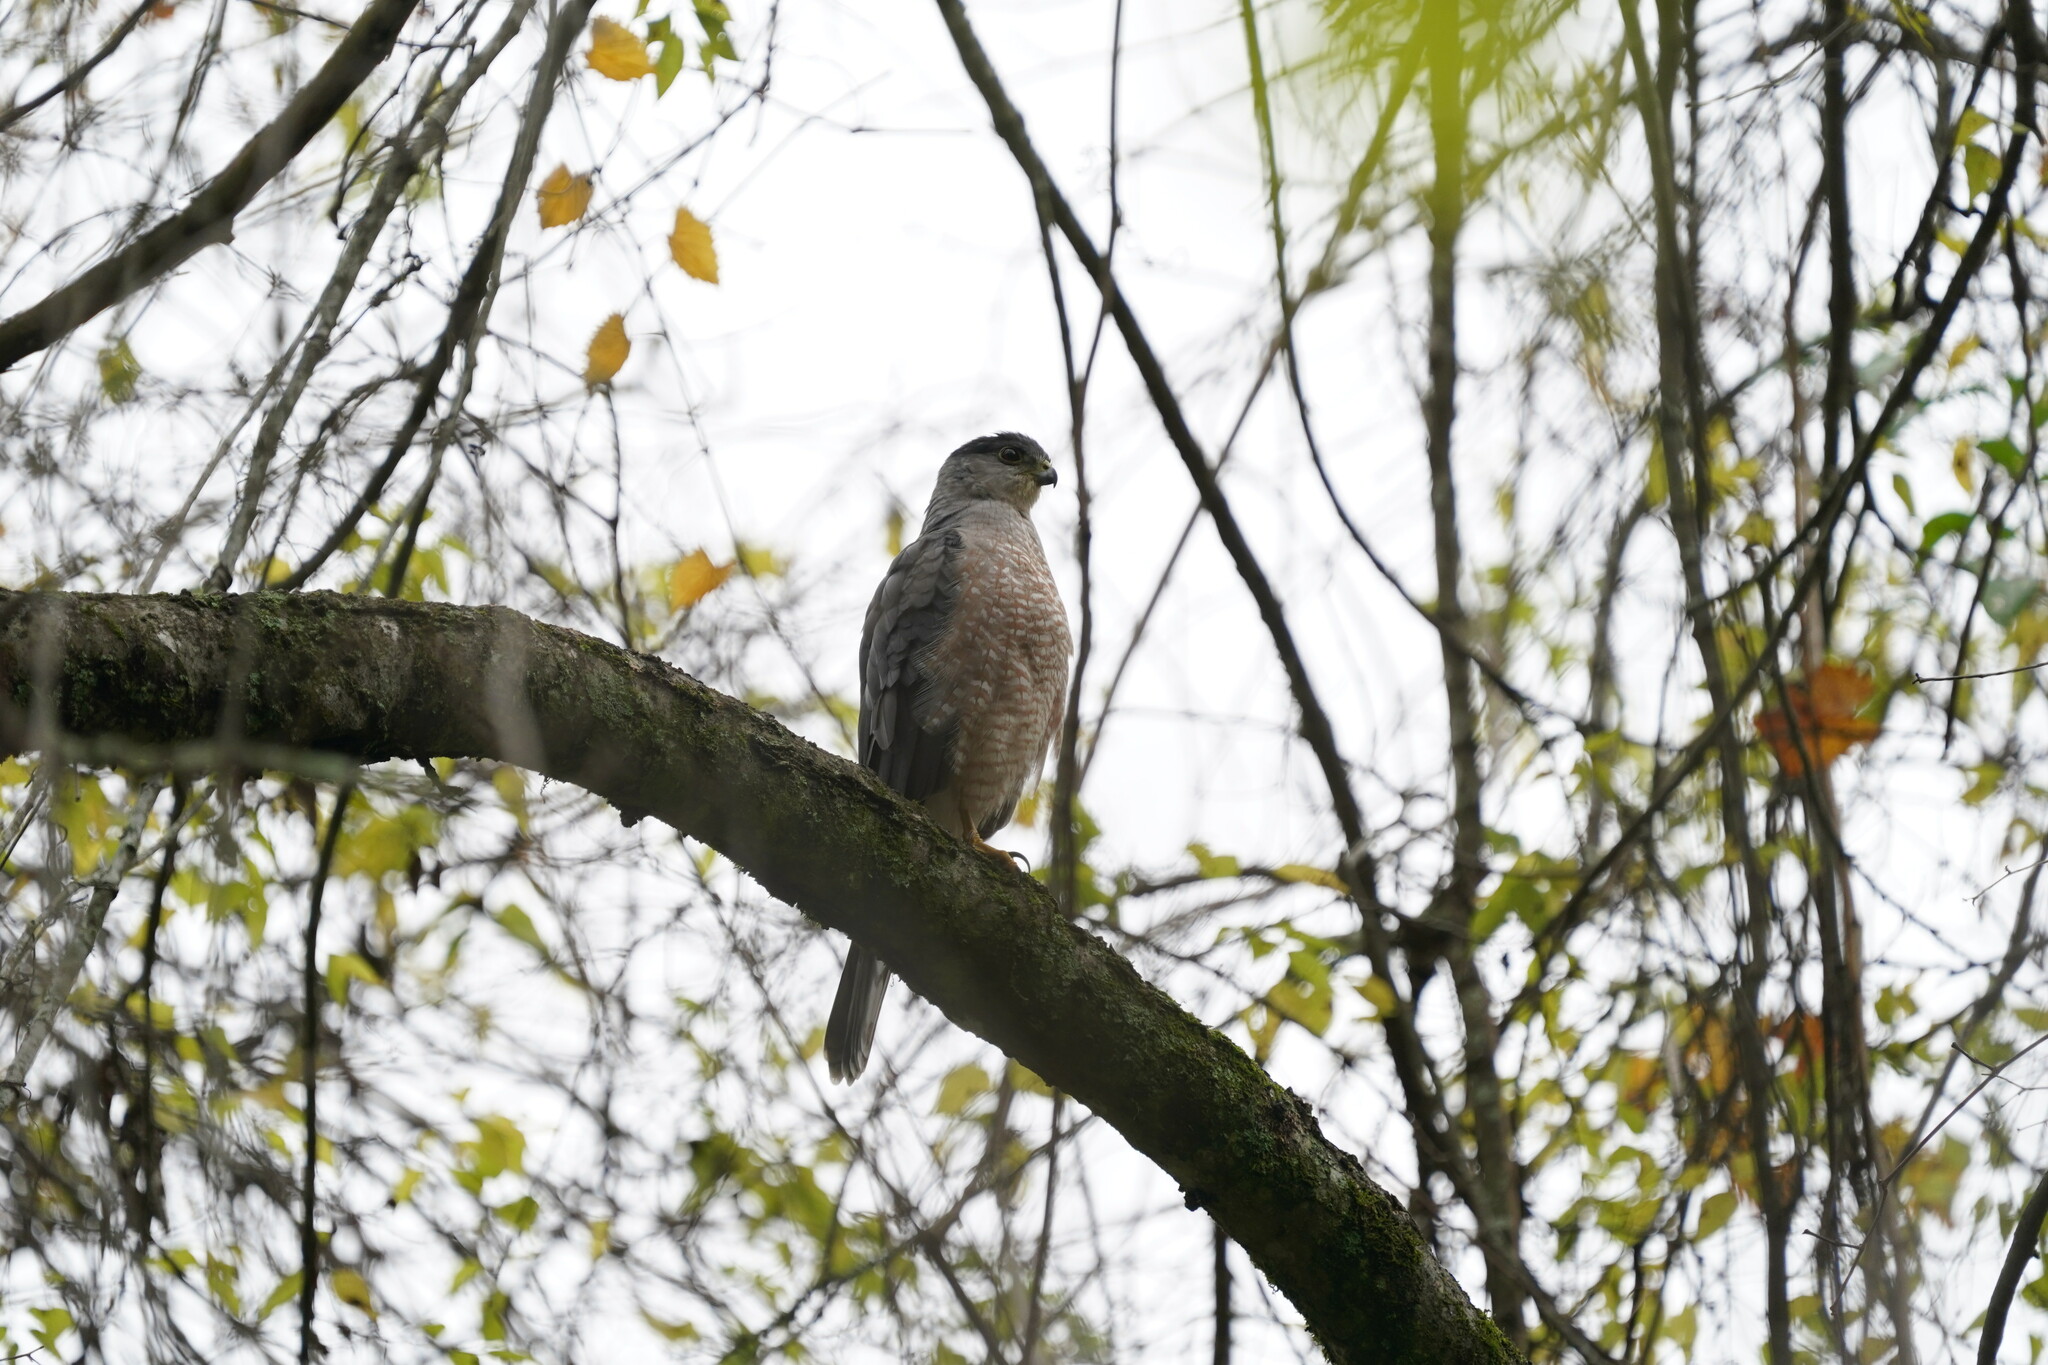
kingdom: Animalia
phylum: Chordata
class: Aves
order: Accipitriformes
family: Accipitridae
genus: Accipiter
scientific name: Accipiter cooperii
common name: Cooper's hawk
